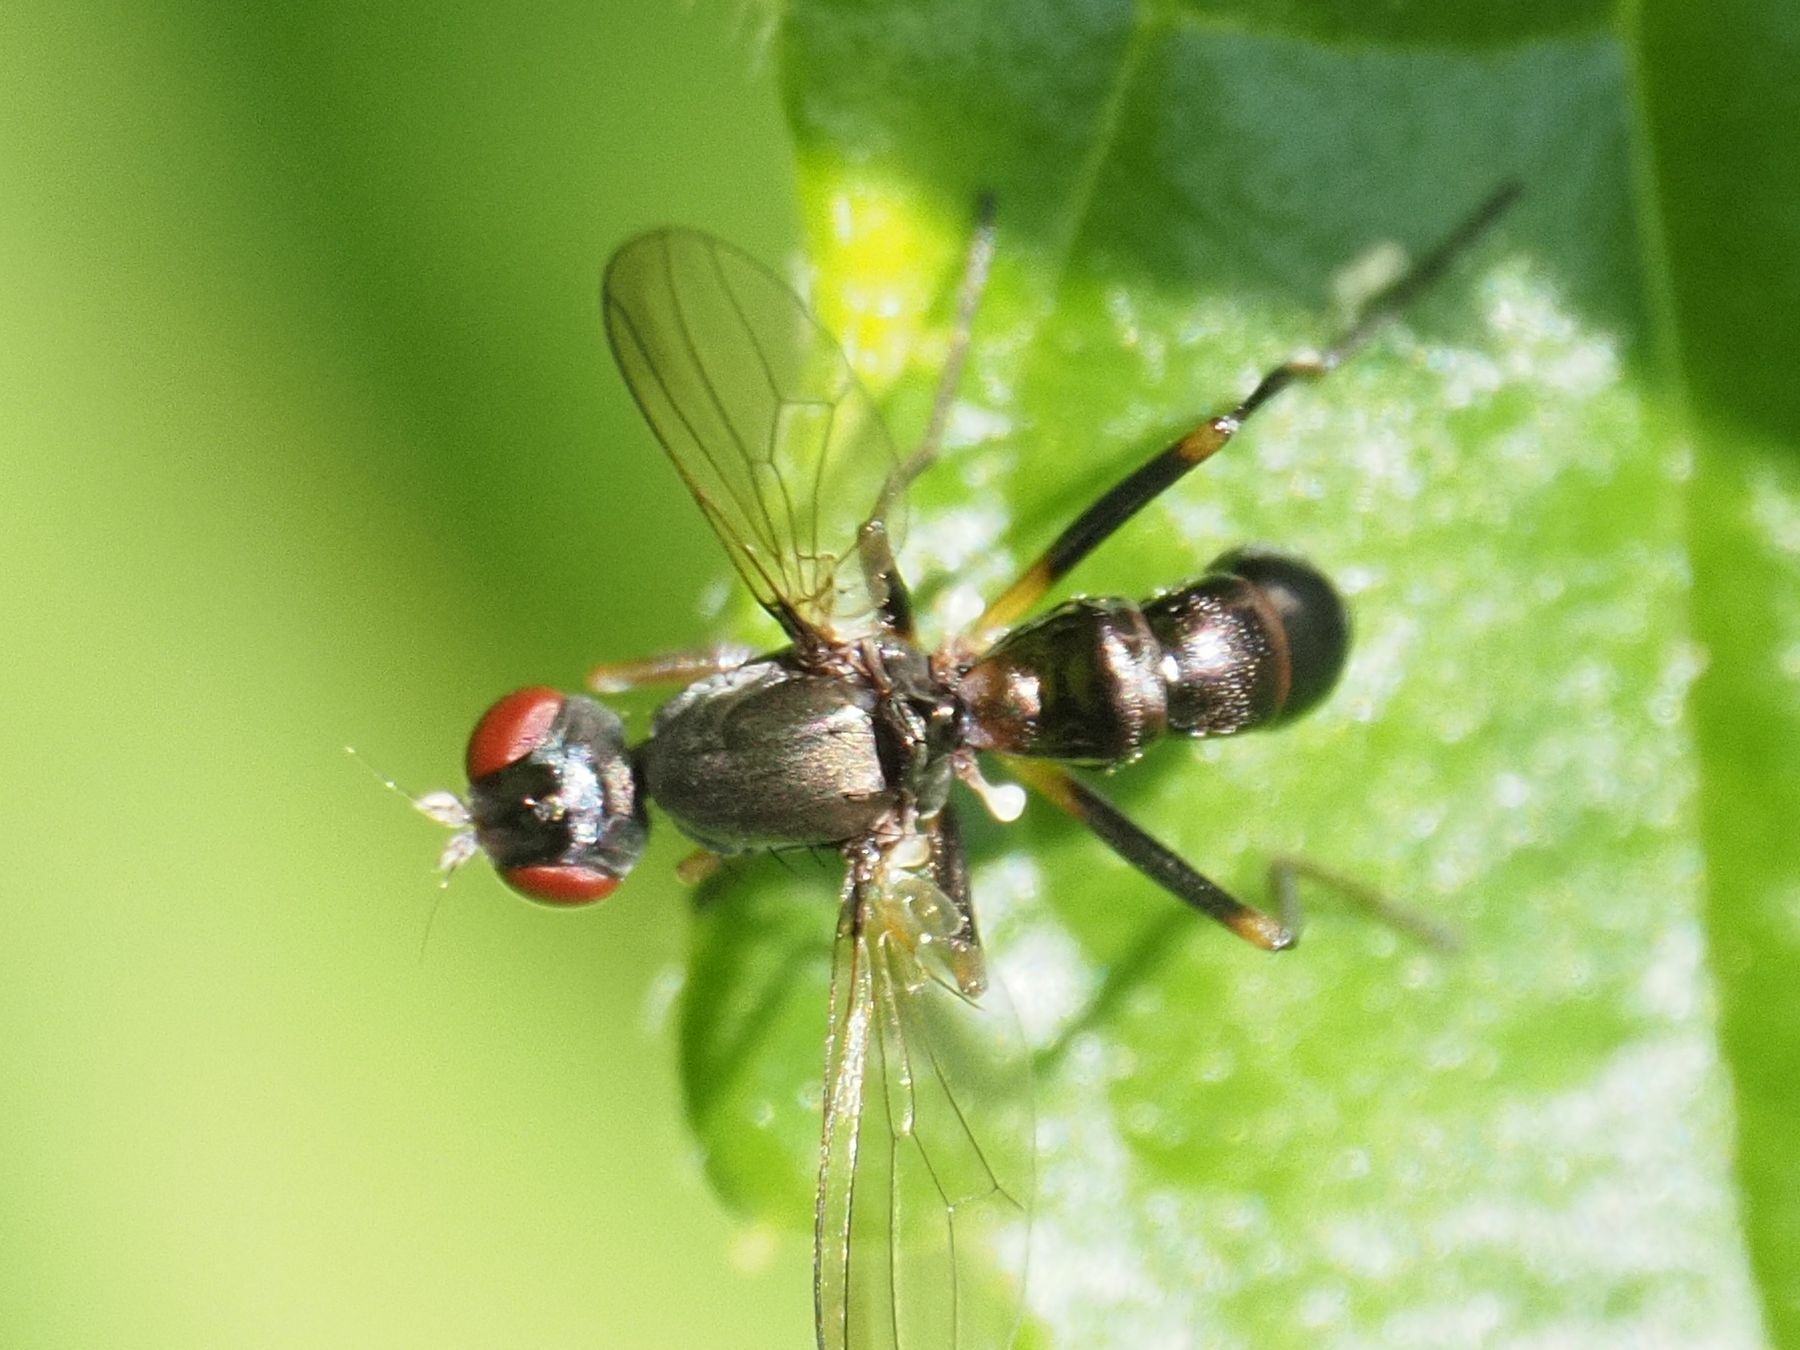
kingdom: Animalia
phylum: Arthropoda
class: Insecta
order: Diptera
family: Sepsidae
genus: Nemopoda
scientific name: Nemopoda nitidula
